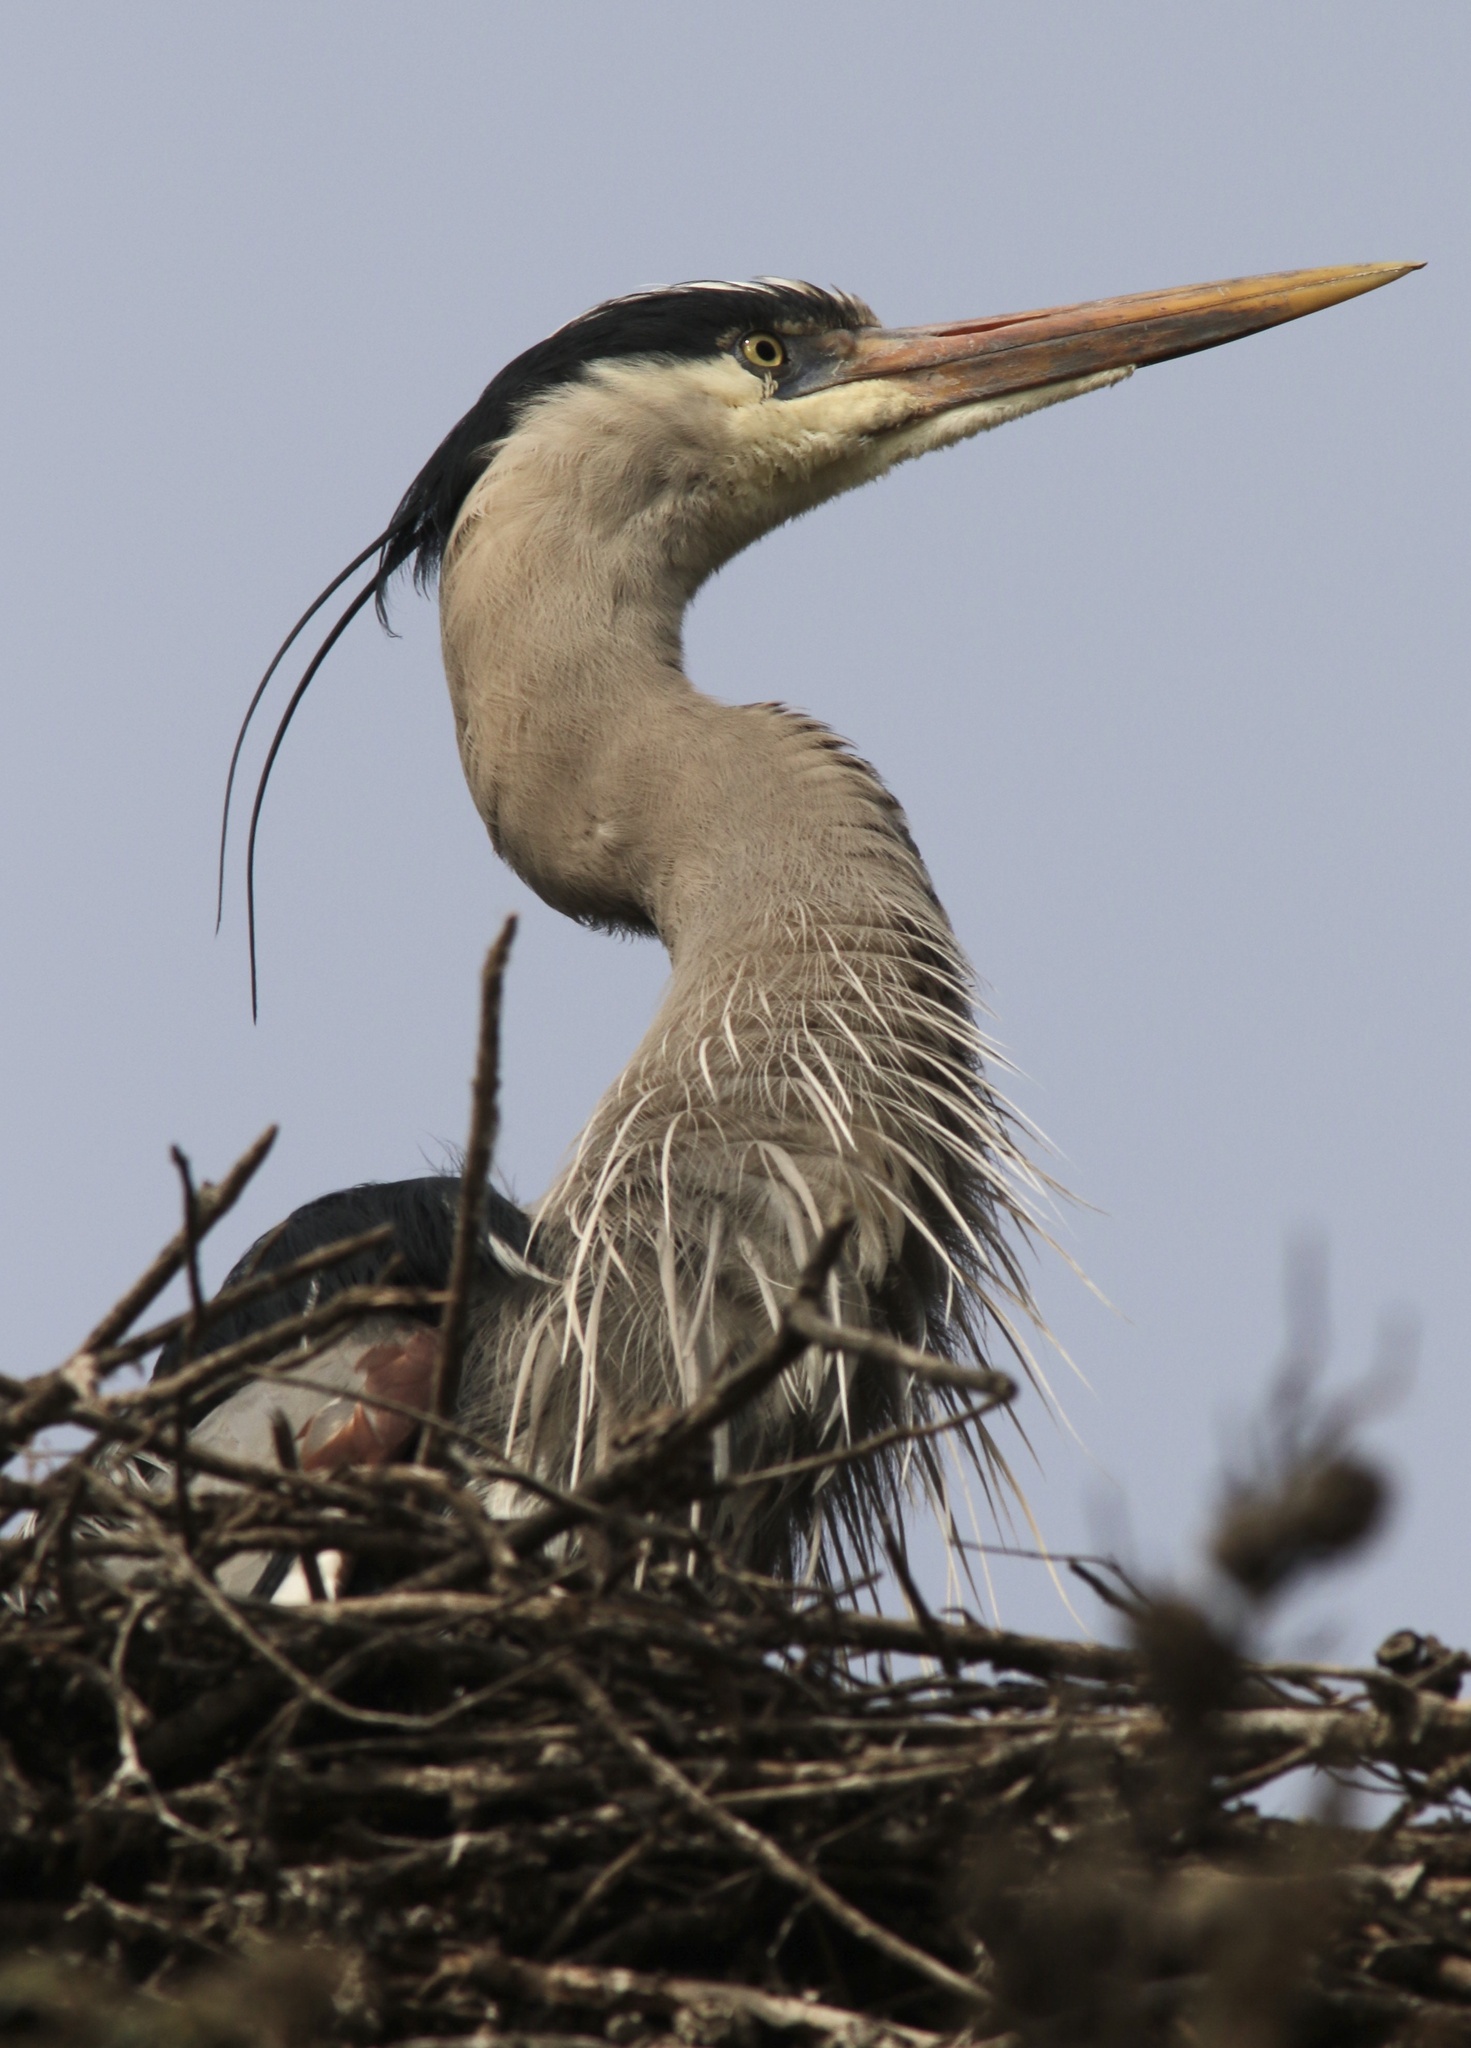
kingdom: Animalia
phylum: Chordata
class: Aves
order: Pelecaniformes
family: Ardeidae
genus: Ardea
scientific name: Ardea herodias
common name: Great blue heron
